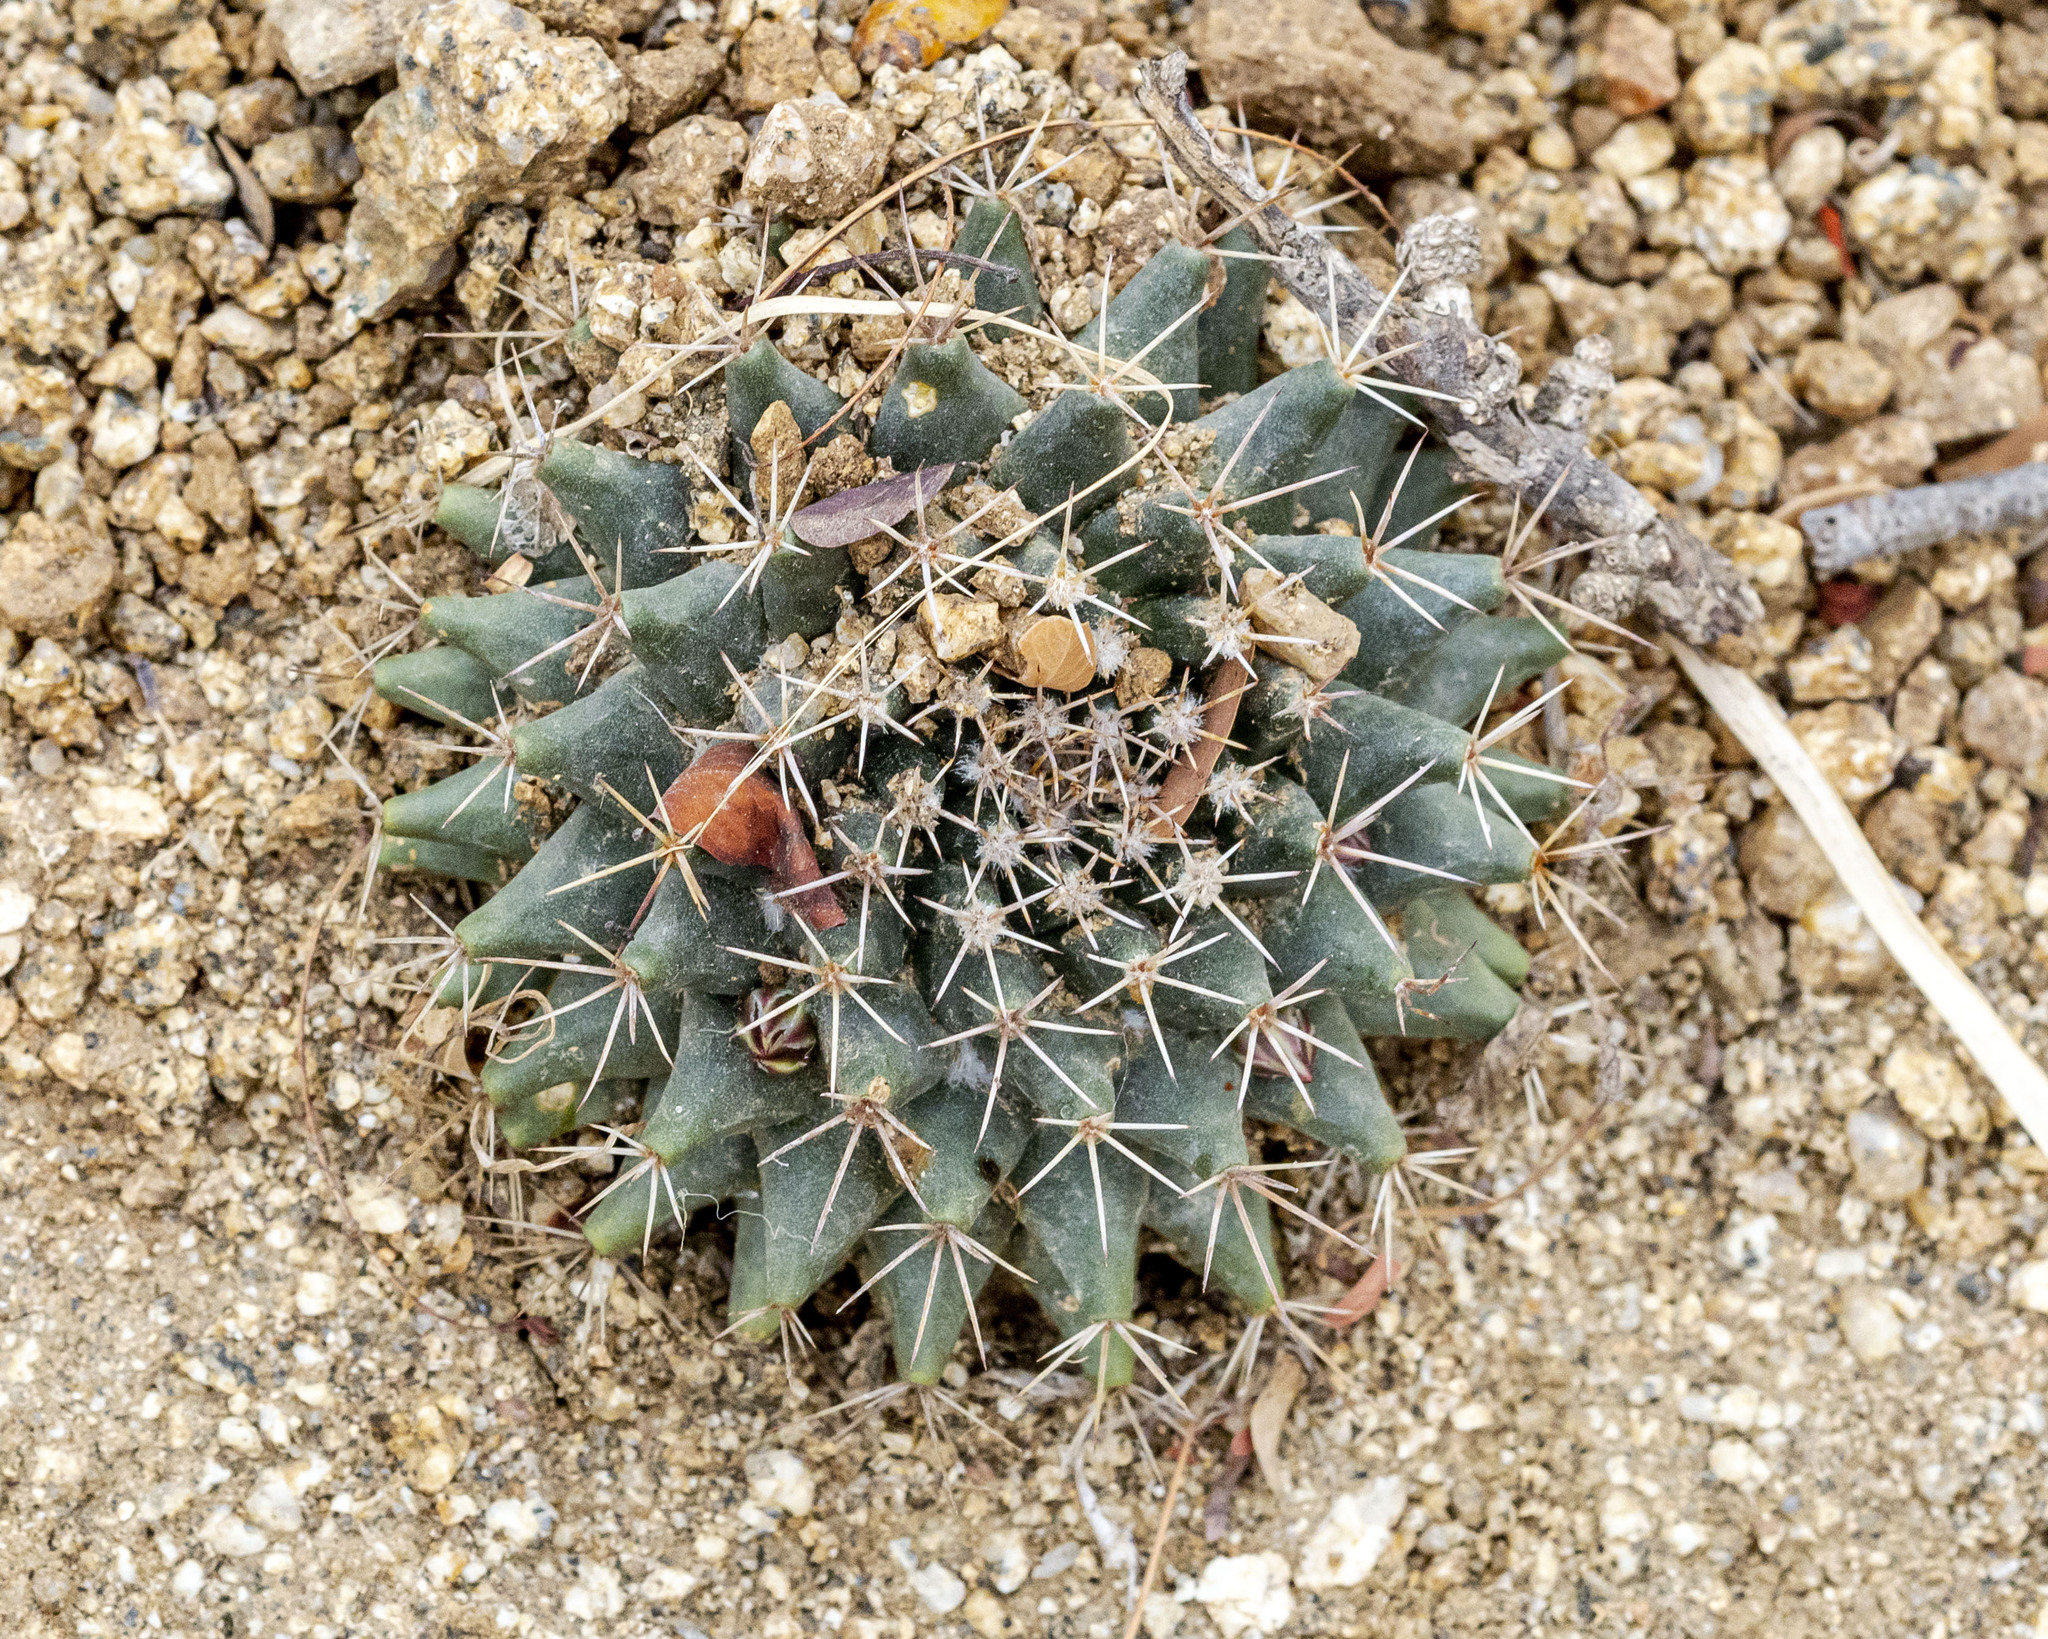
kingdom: Plantae
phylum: Tracheophyta
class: Magnoliopsida
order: Caryophyllales
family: Cactaceae
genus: Mammillaria
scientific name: Mammillaria peninsularis
